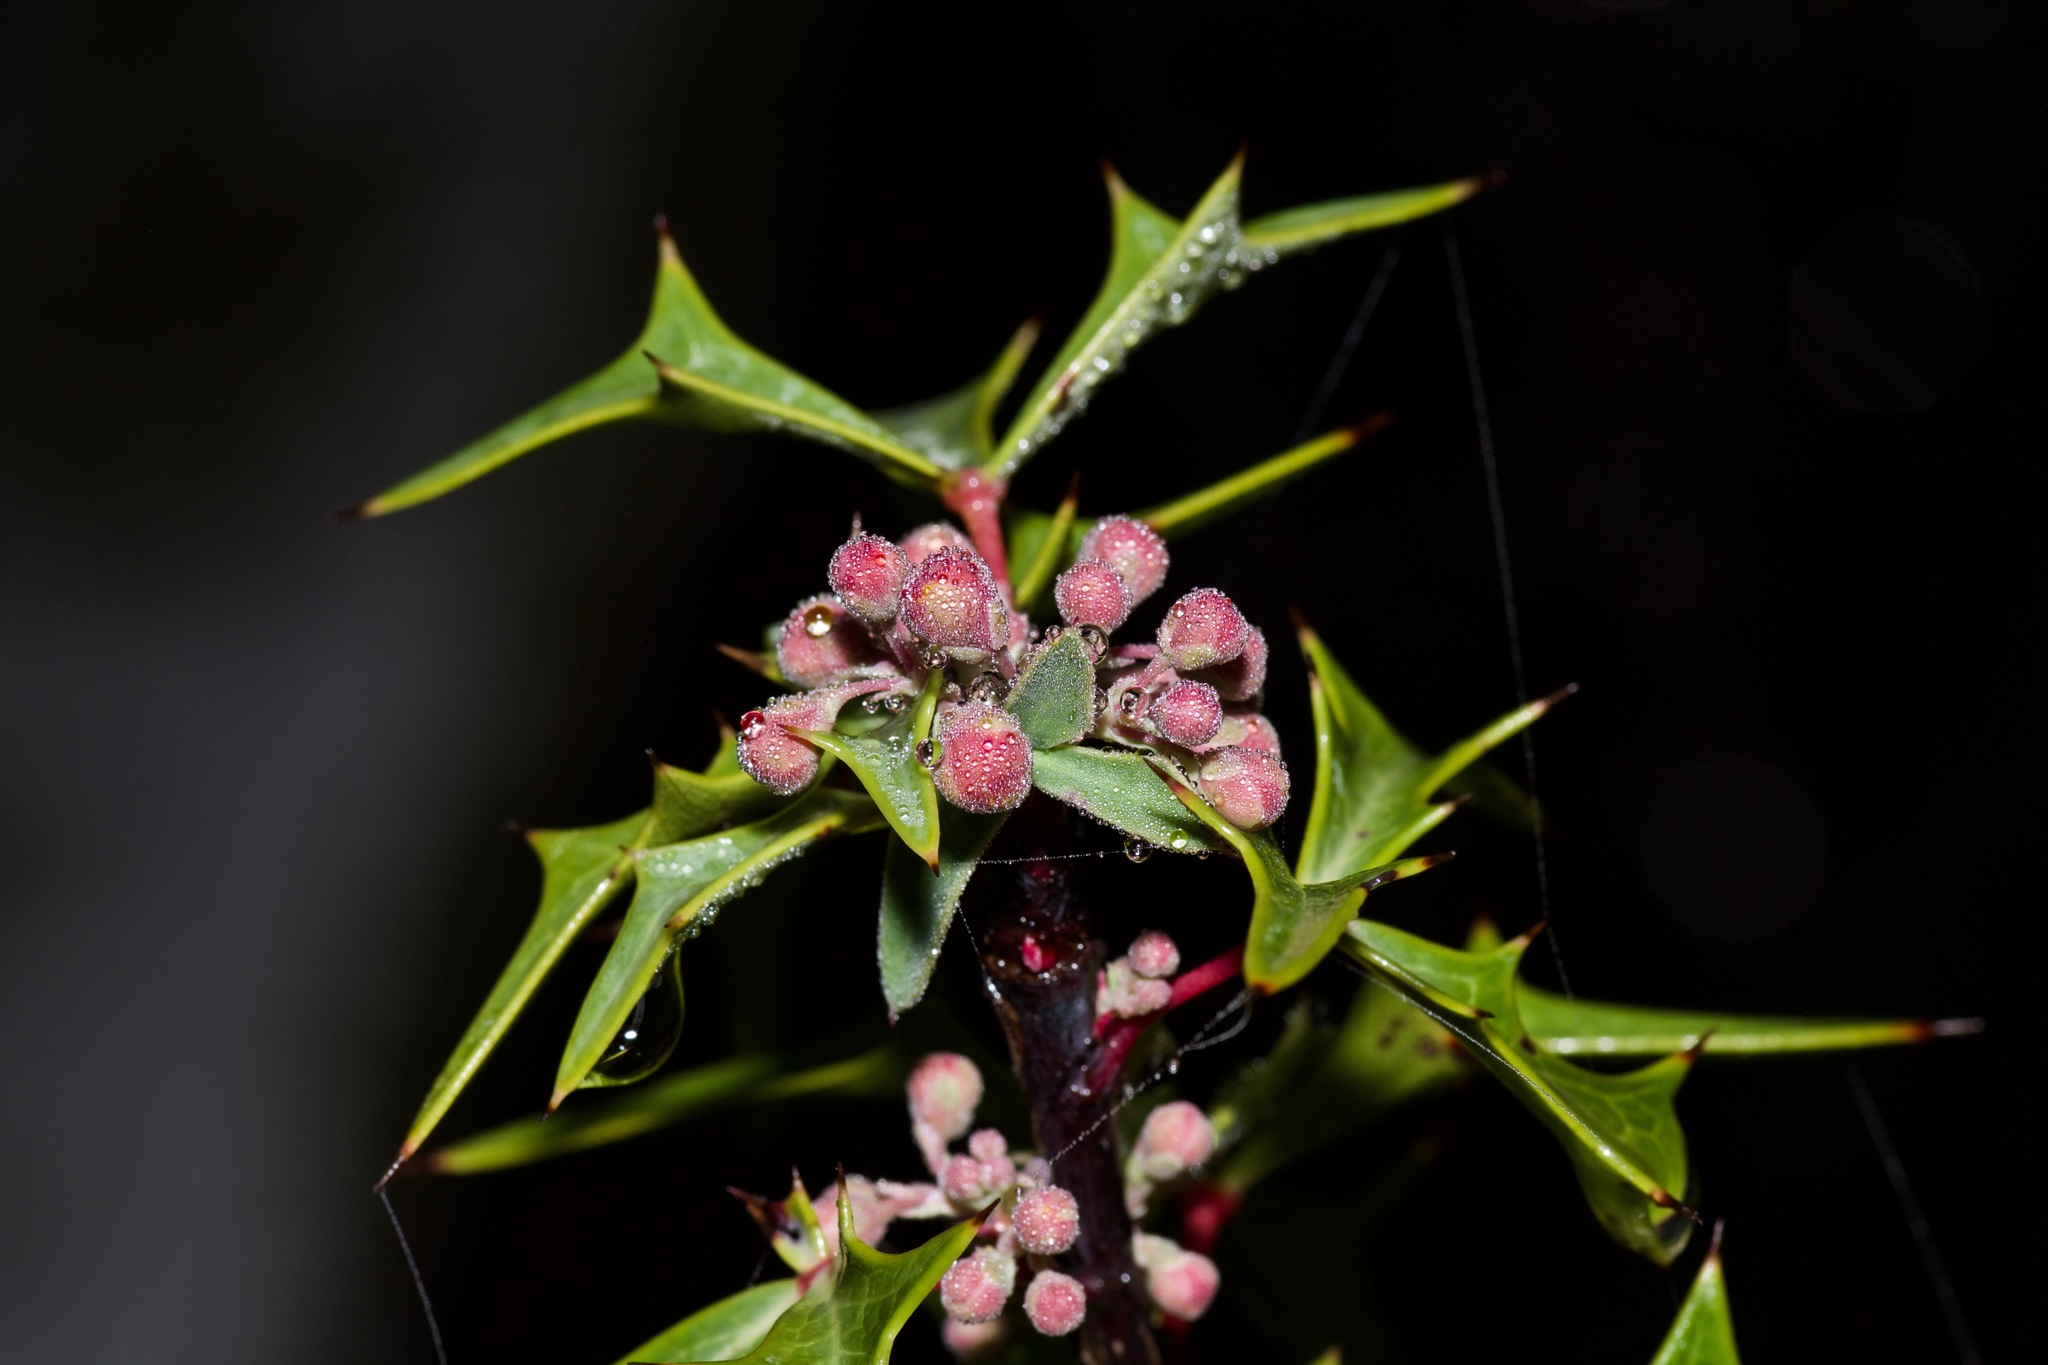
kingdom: Plantae
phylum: Tracheophyta
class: Magnoliopsida
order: Ranunculales
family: Berberidaceae
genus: Alloberberis
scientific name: Alloberberis trifoliolata
